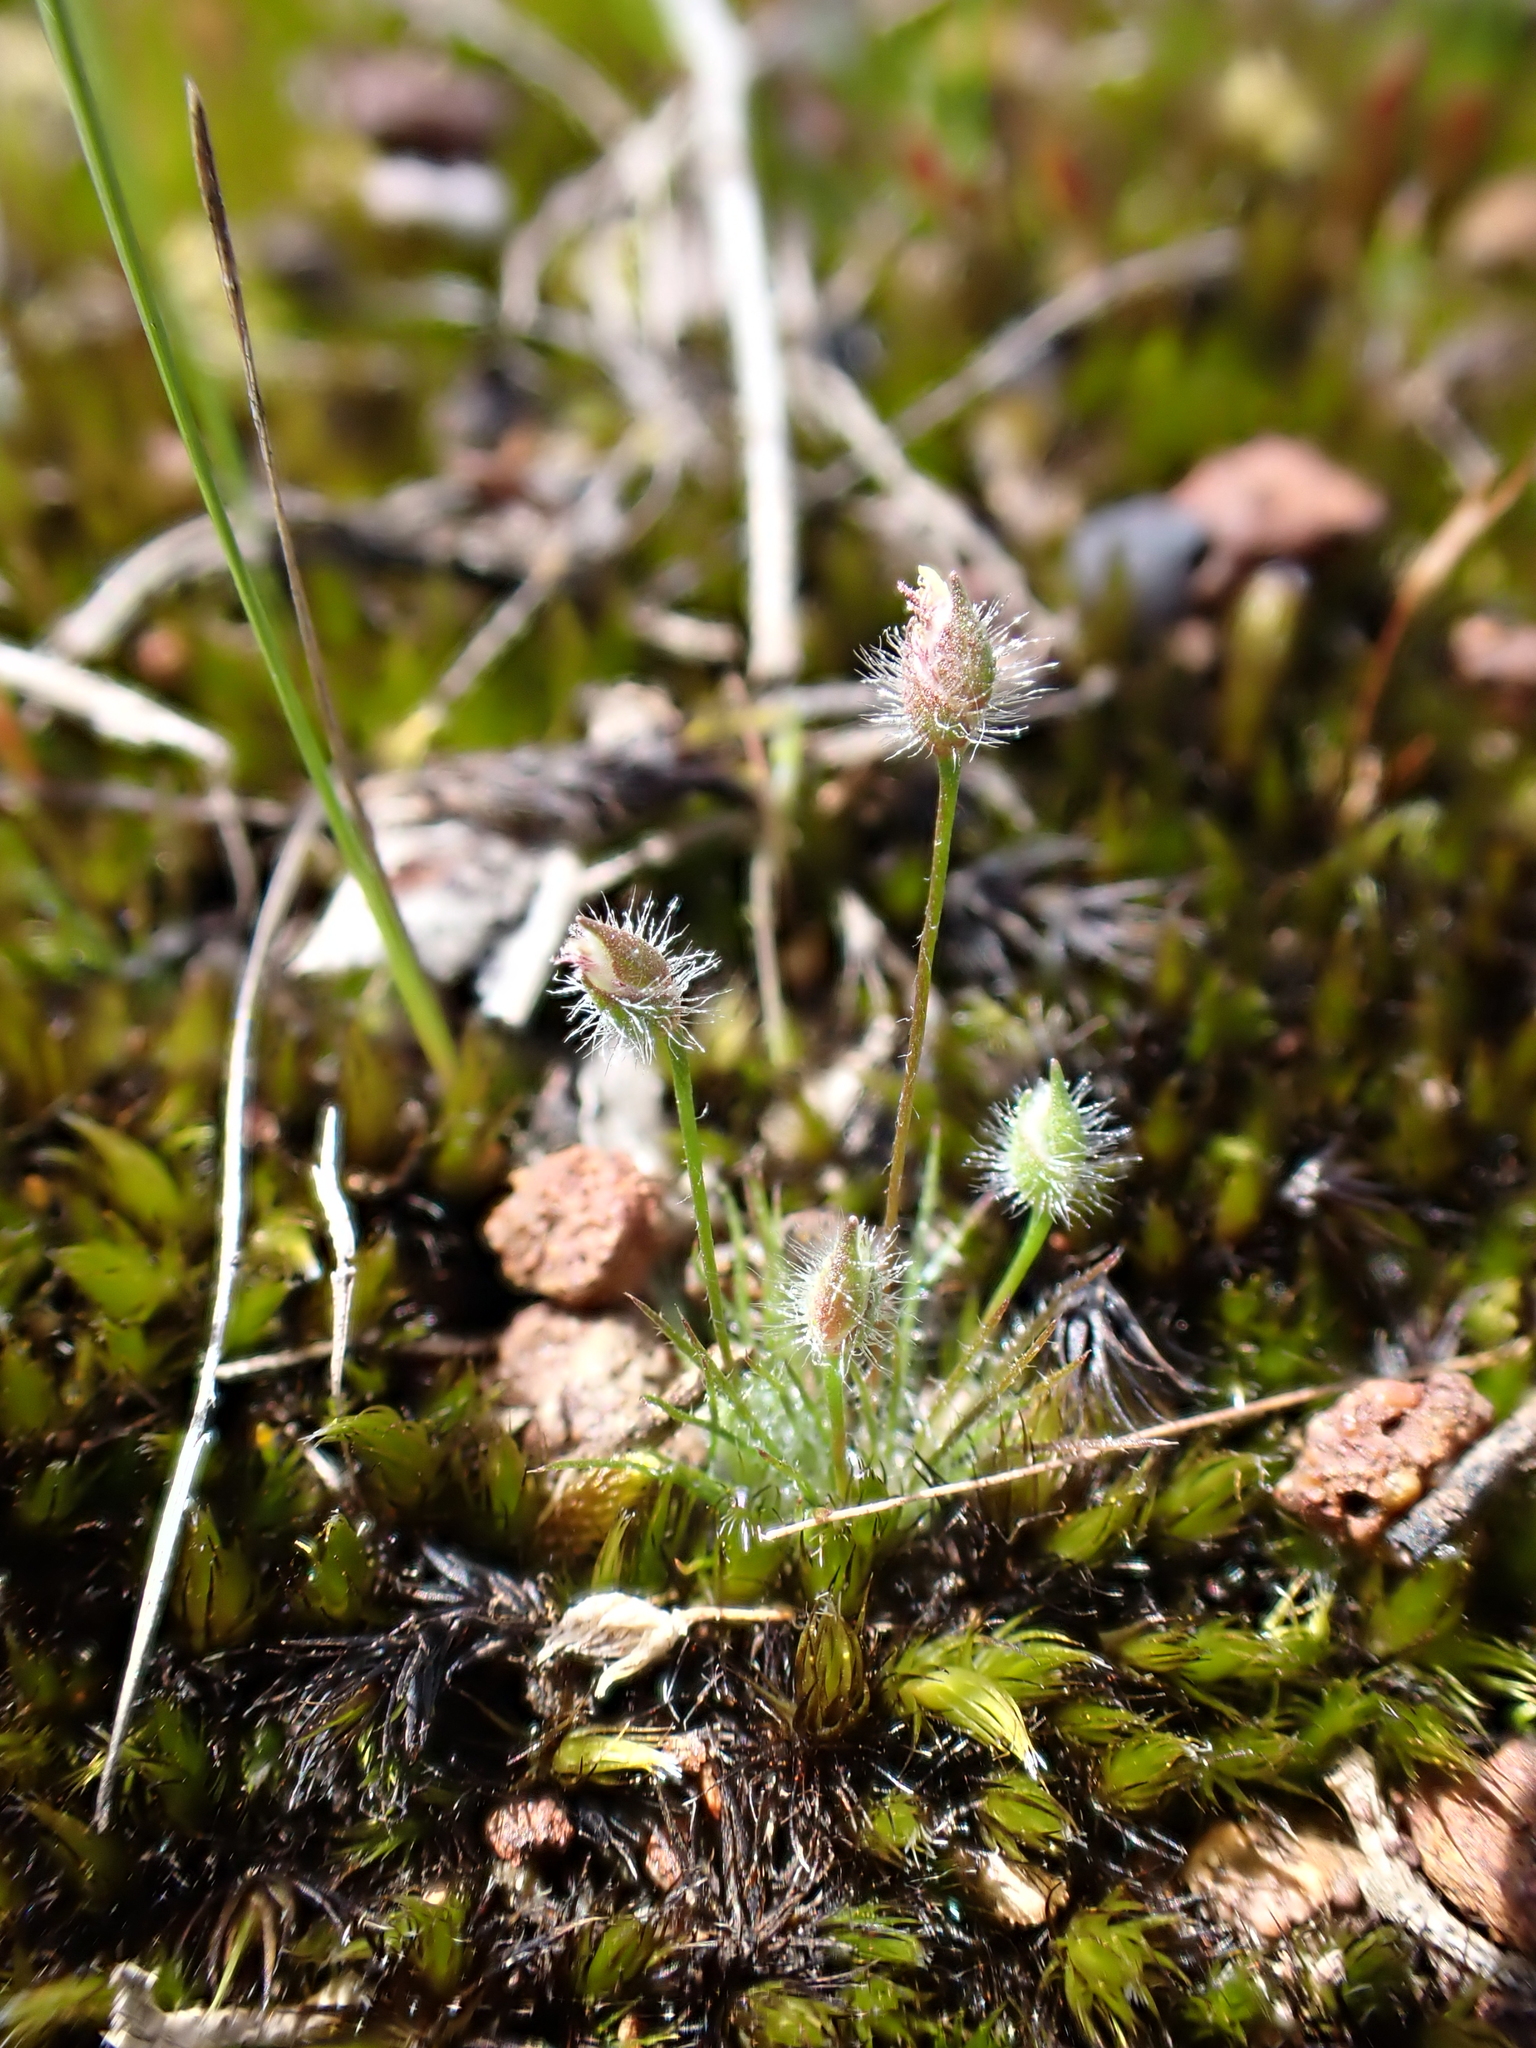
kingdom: Plantae
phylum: Tracheophyta
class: Liliopsida
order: Poales
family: Restionaceae
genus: Centrolepis
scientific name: Centrolepis strigosa
